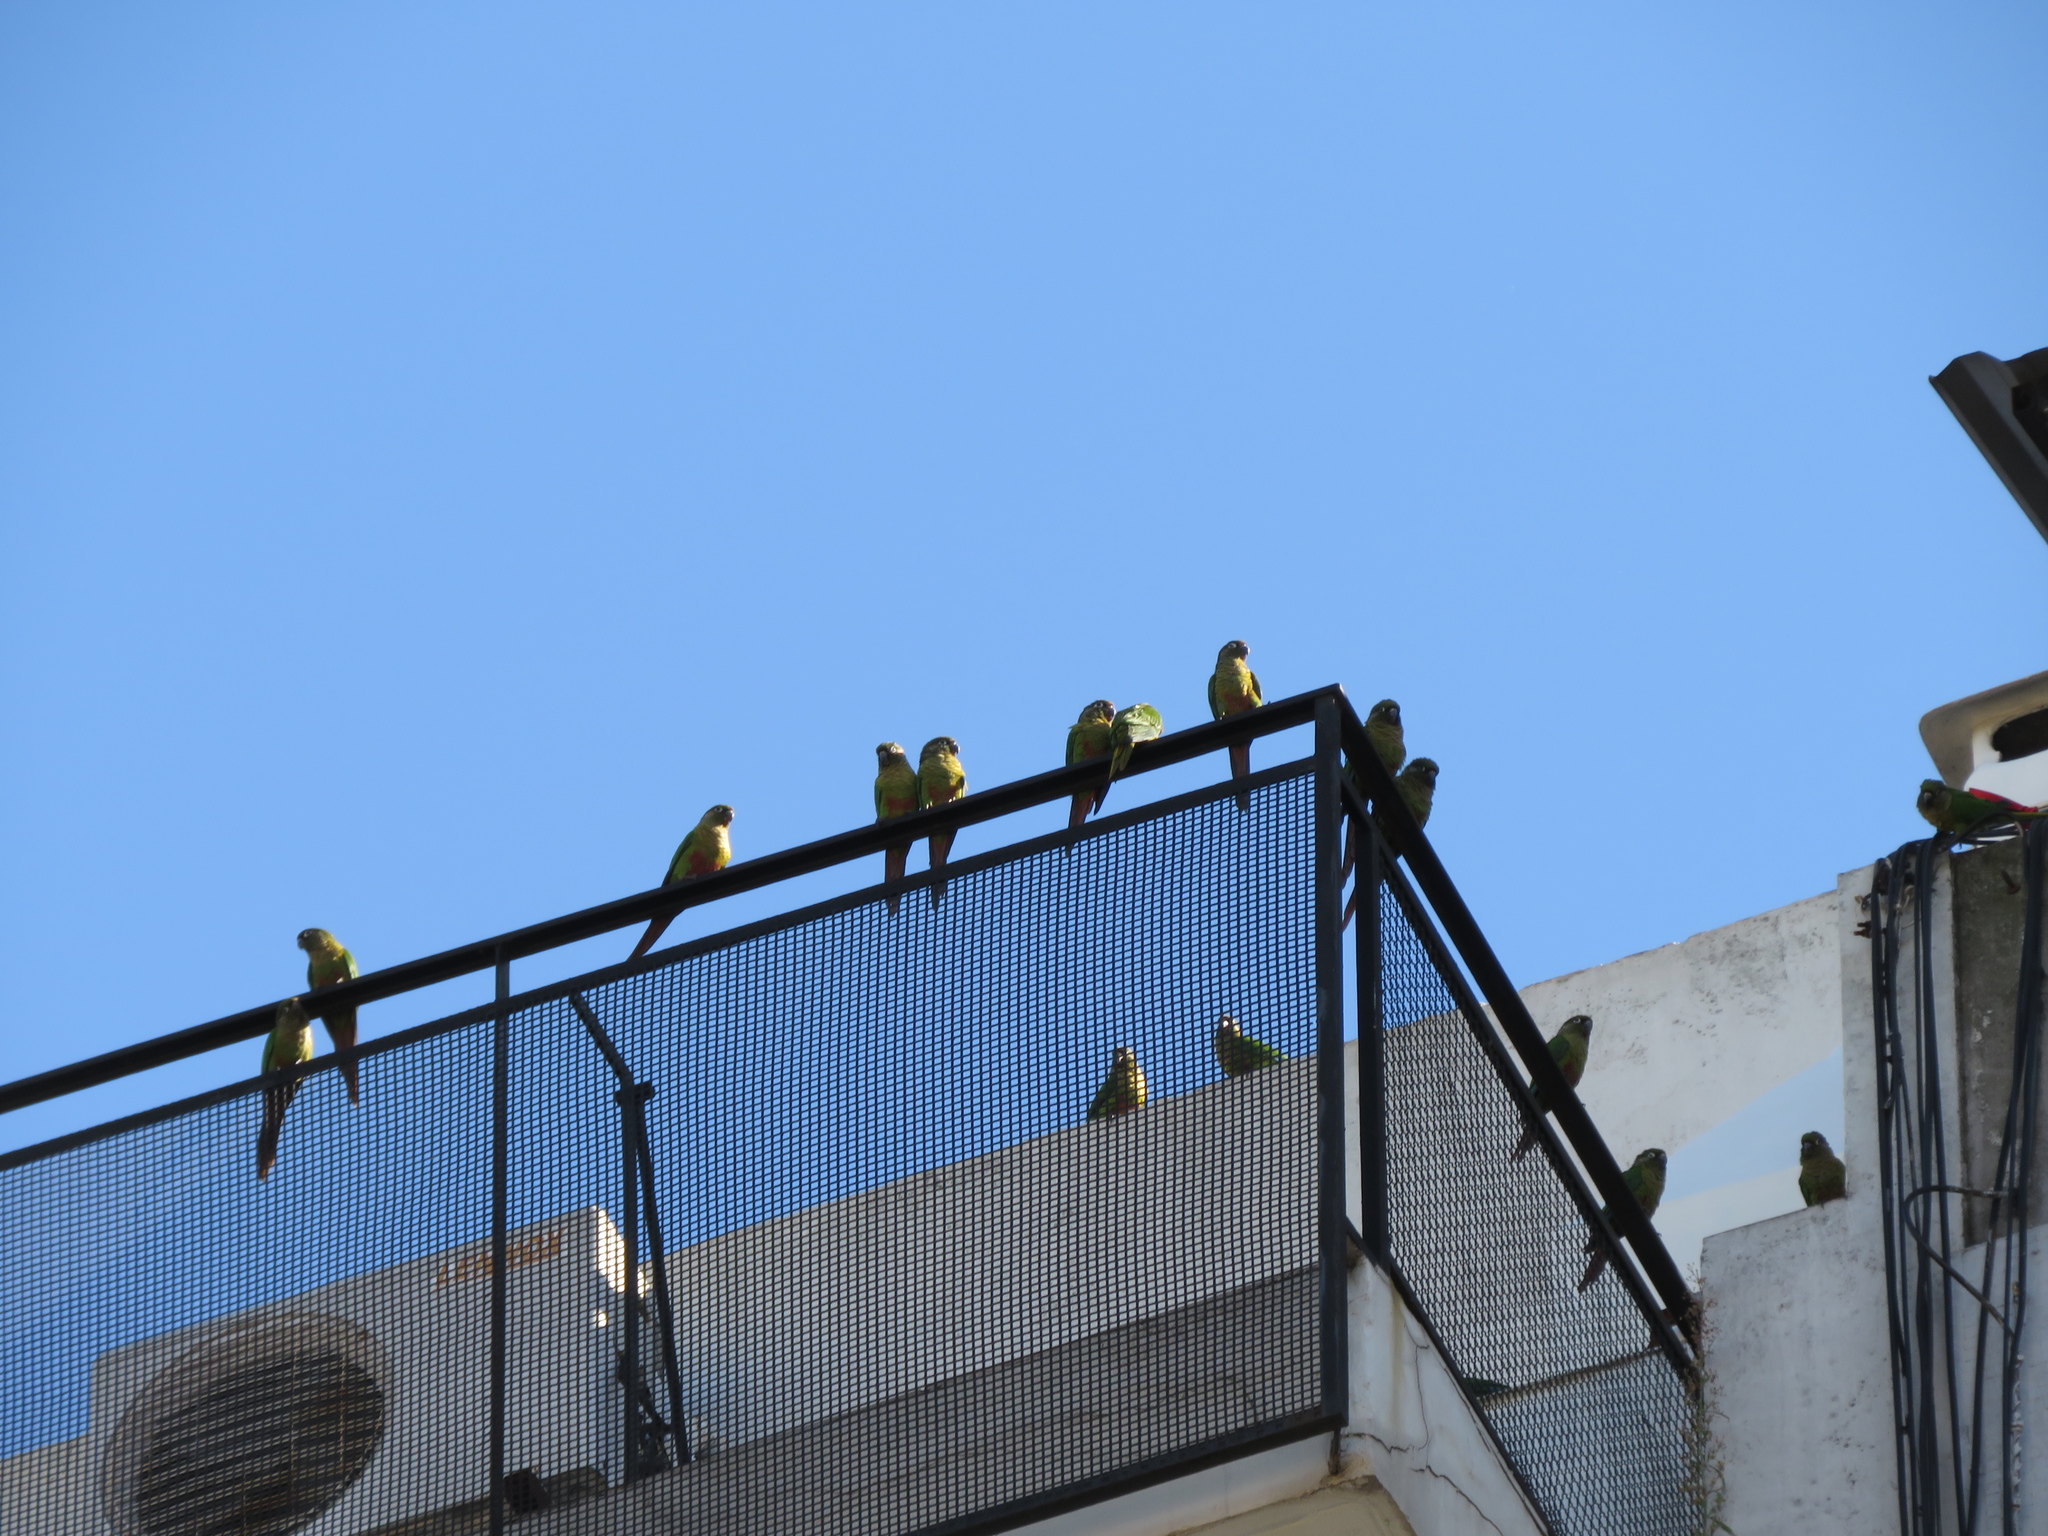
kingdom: Animalia
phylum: Chordata
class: Aves
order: Psittaciformes
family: Psittacidae
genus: Pyrrhura
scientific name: Pyrrhura frontalis
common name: Maroon-bellied parakeet
